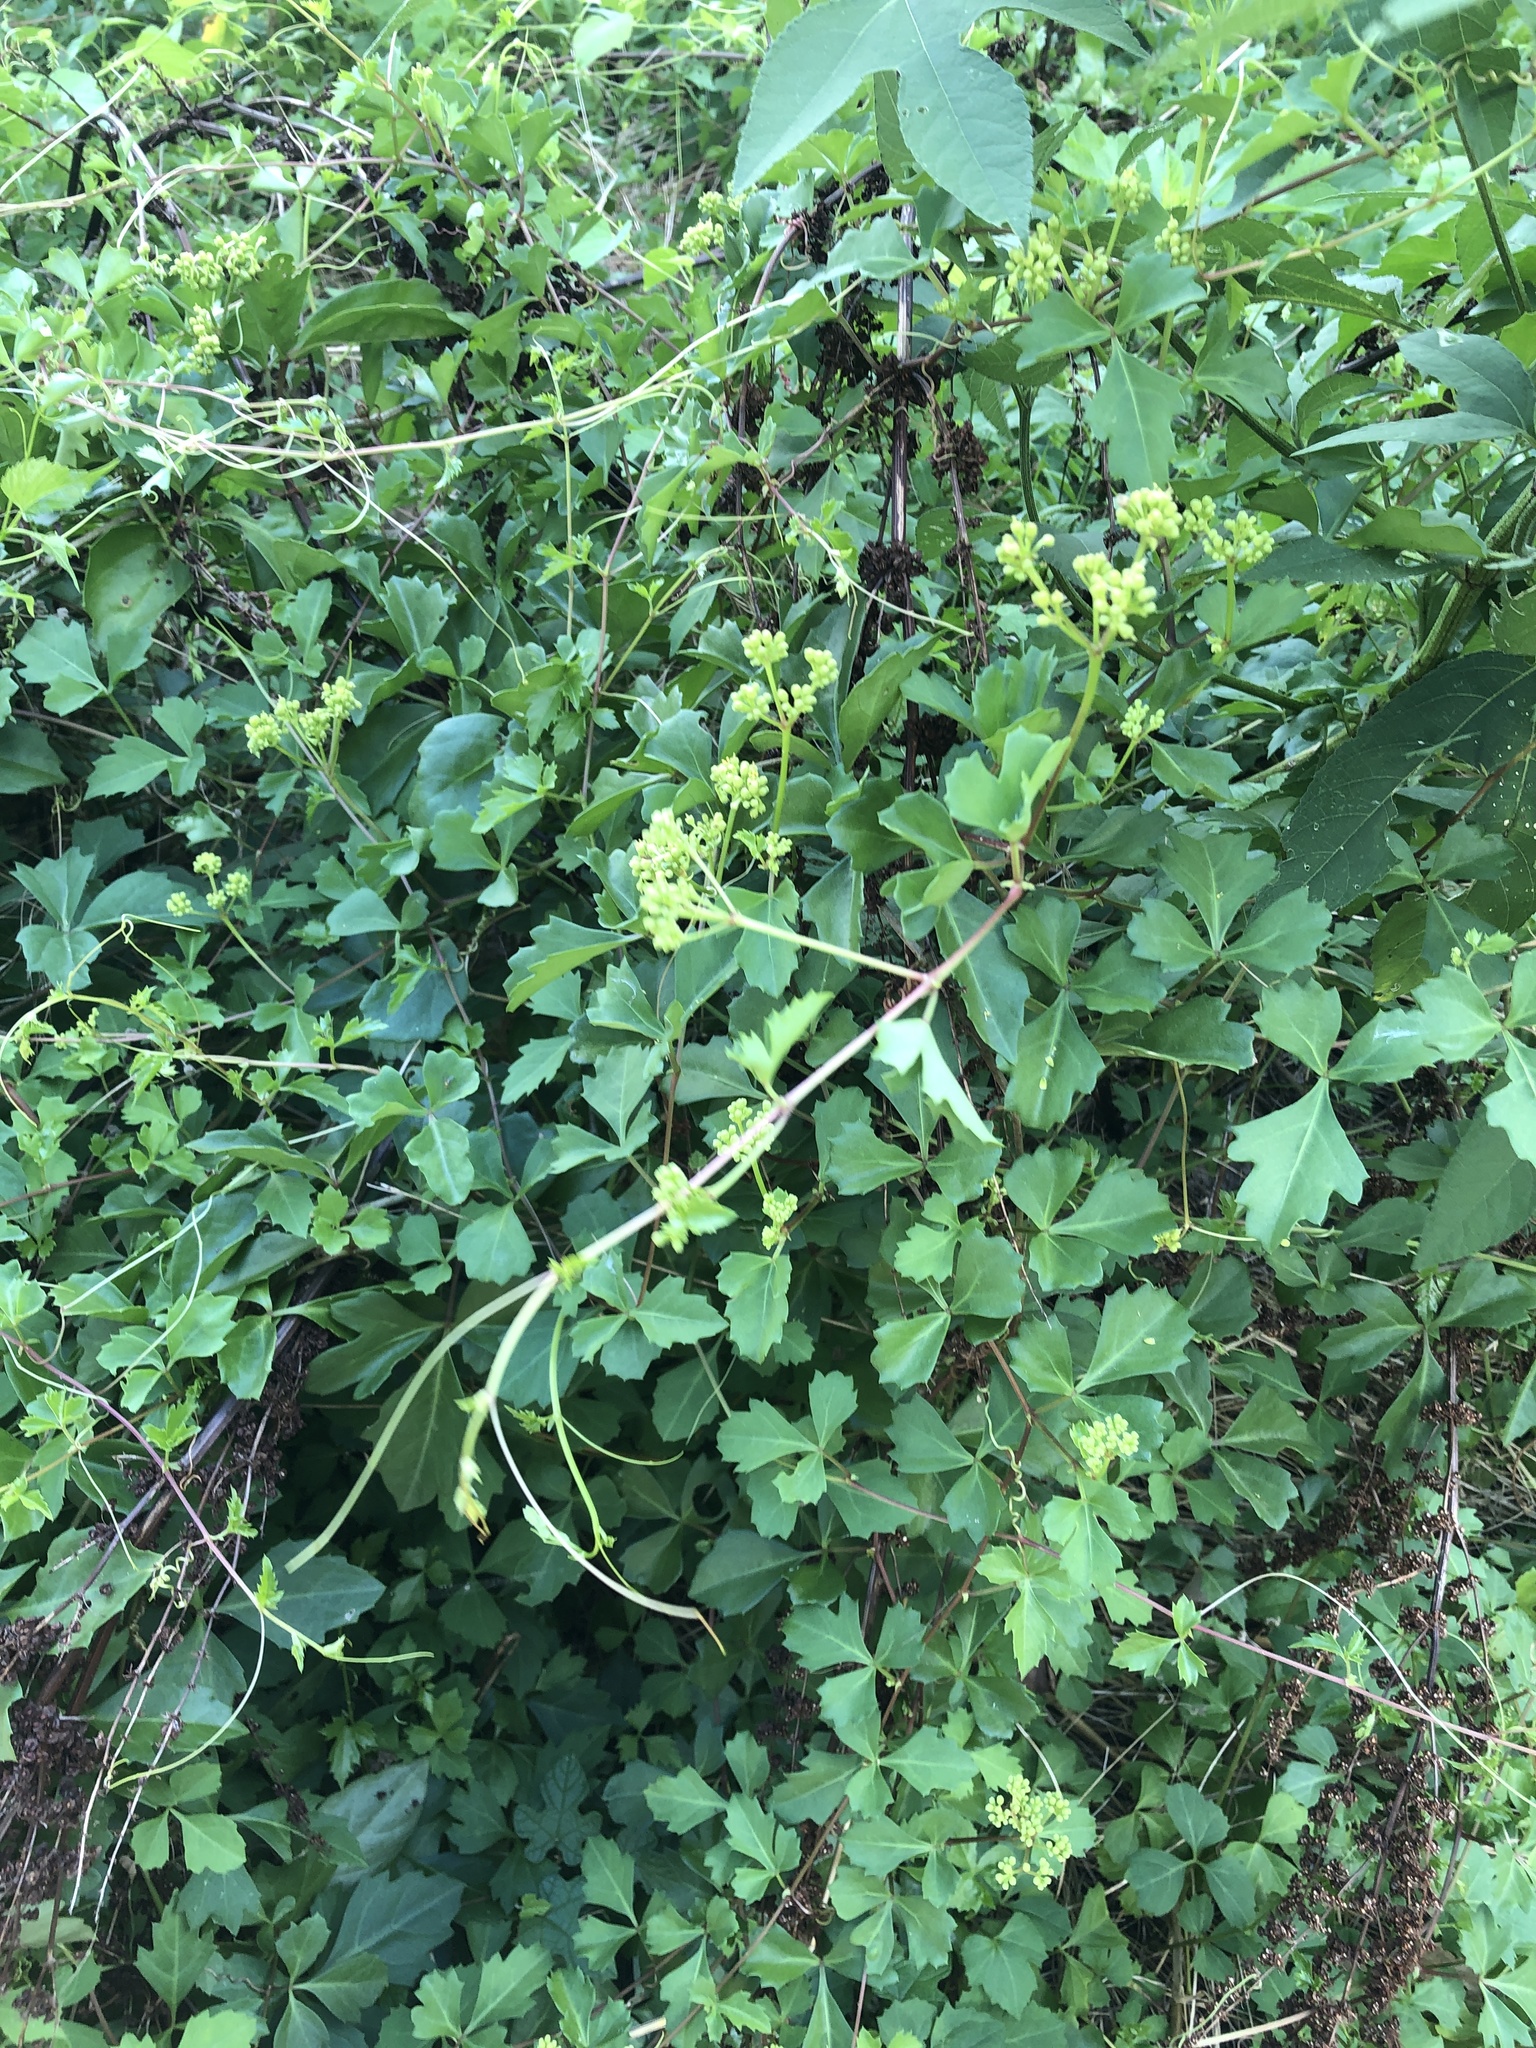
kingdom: Plantae
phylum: Tracheophyta
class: Magnoliopsida
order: Vitales
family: Vitaceae
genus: Cissus
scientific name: Cissus trifoliata
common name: Vine-sorrel
